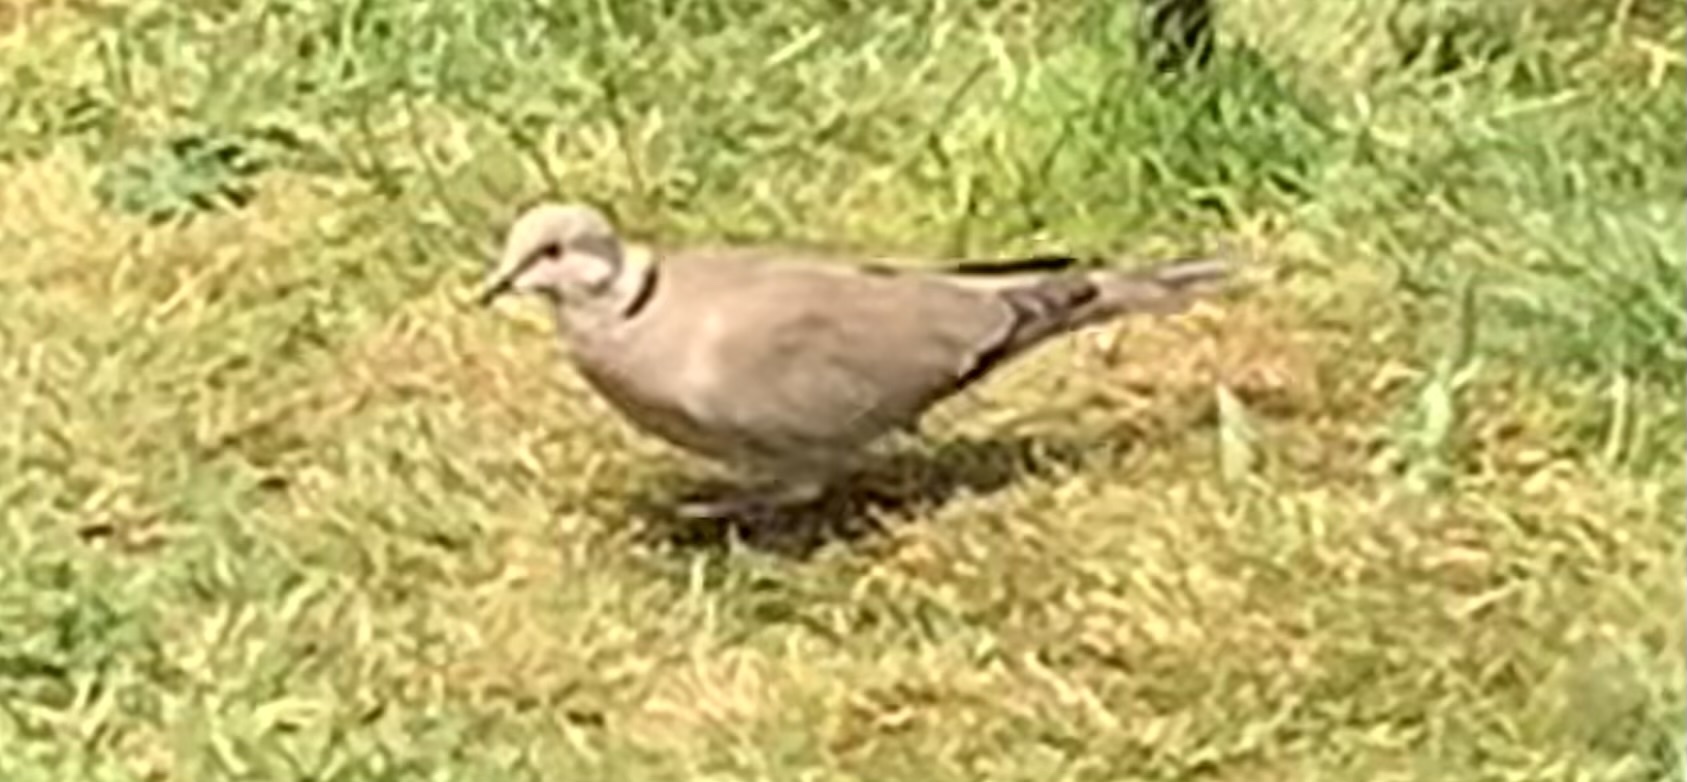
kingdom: Animalia
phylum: Chordata
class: Aves
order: Columbiformes
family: Columbidae
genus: Streptopelia
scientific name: Streptopelia decaocto
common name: Eurasian collared dove
